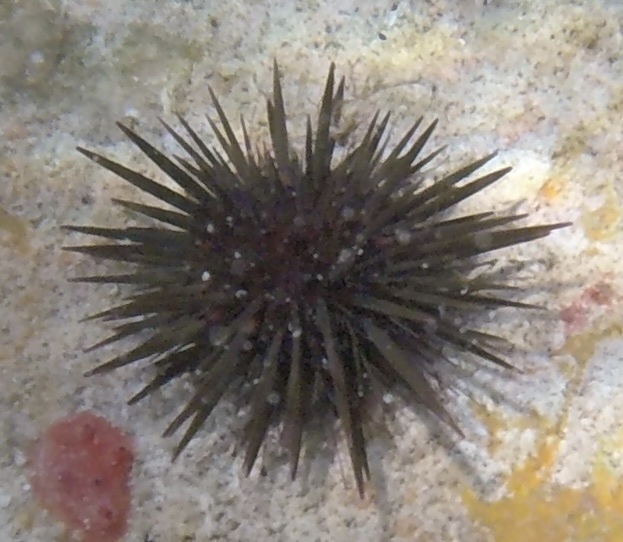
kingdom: Animalia
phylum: Echinodermata
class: Echinoidea
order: Camarodonta
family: Echinometridae
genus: Echinometra
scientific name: Echinometra lucunter
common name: Rock urchin
